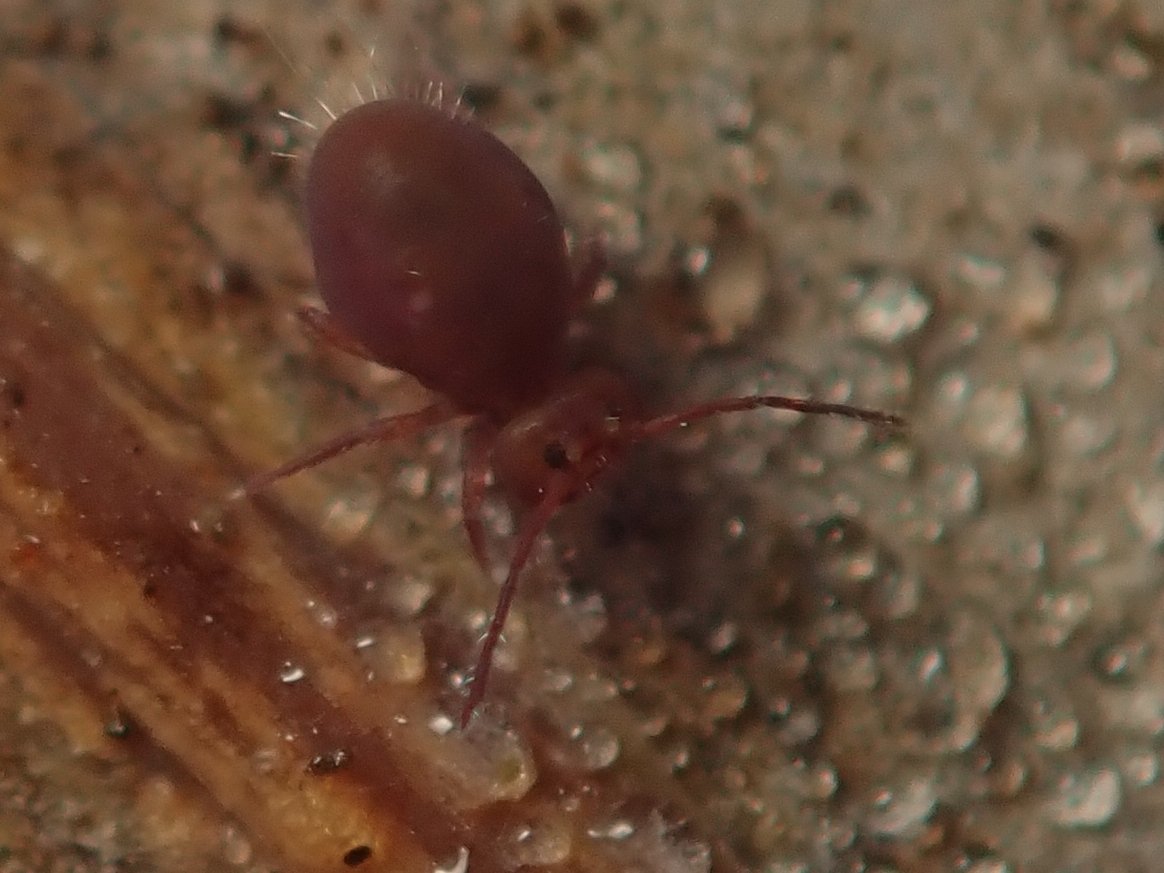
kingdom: Animalia
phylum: Arthropoda
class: Collembola
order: Symphypleona
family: Dicyrtomidae
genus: Dicyrtoma
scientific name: Dicyrtoma fusca
